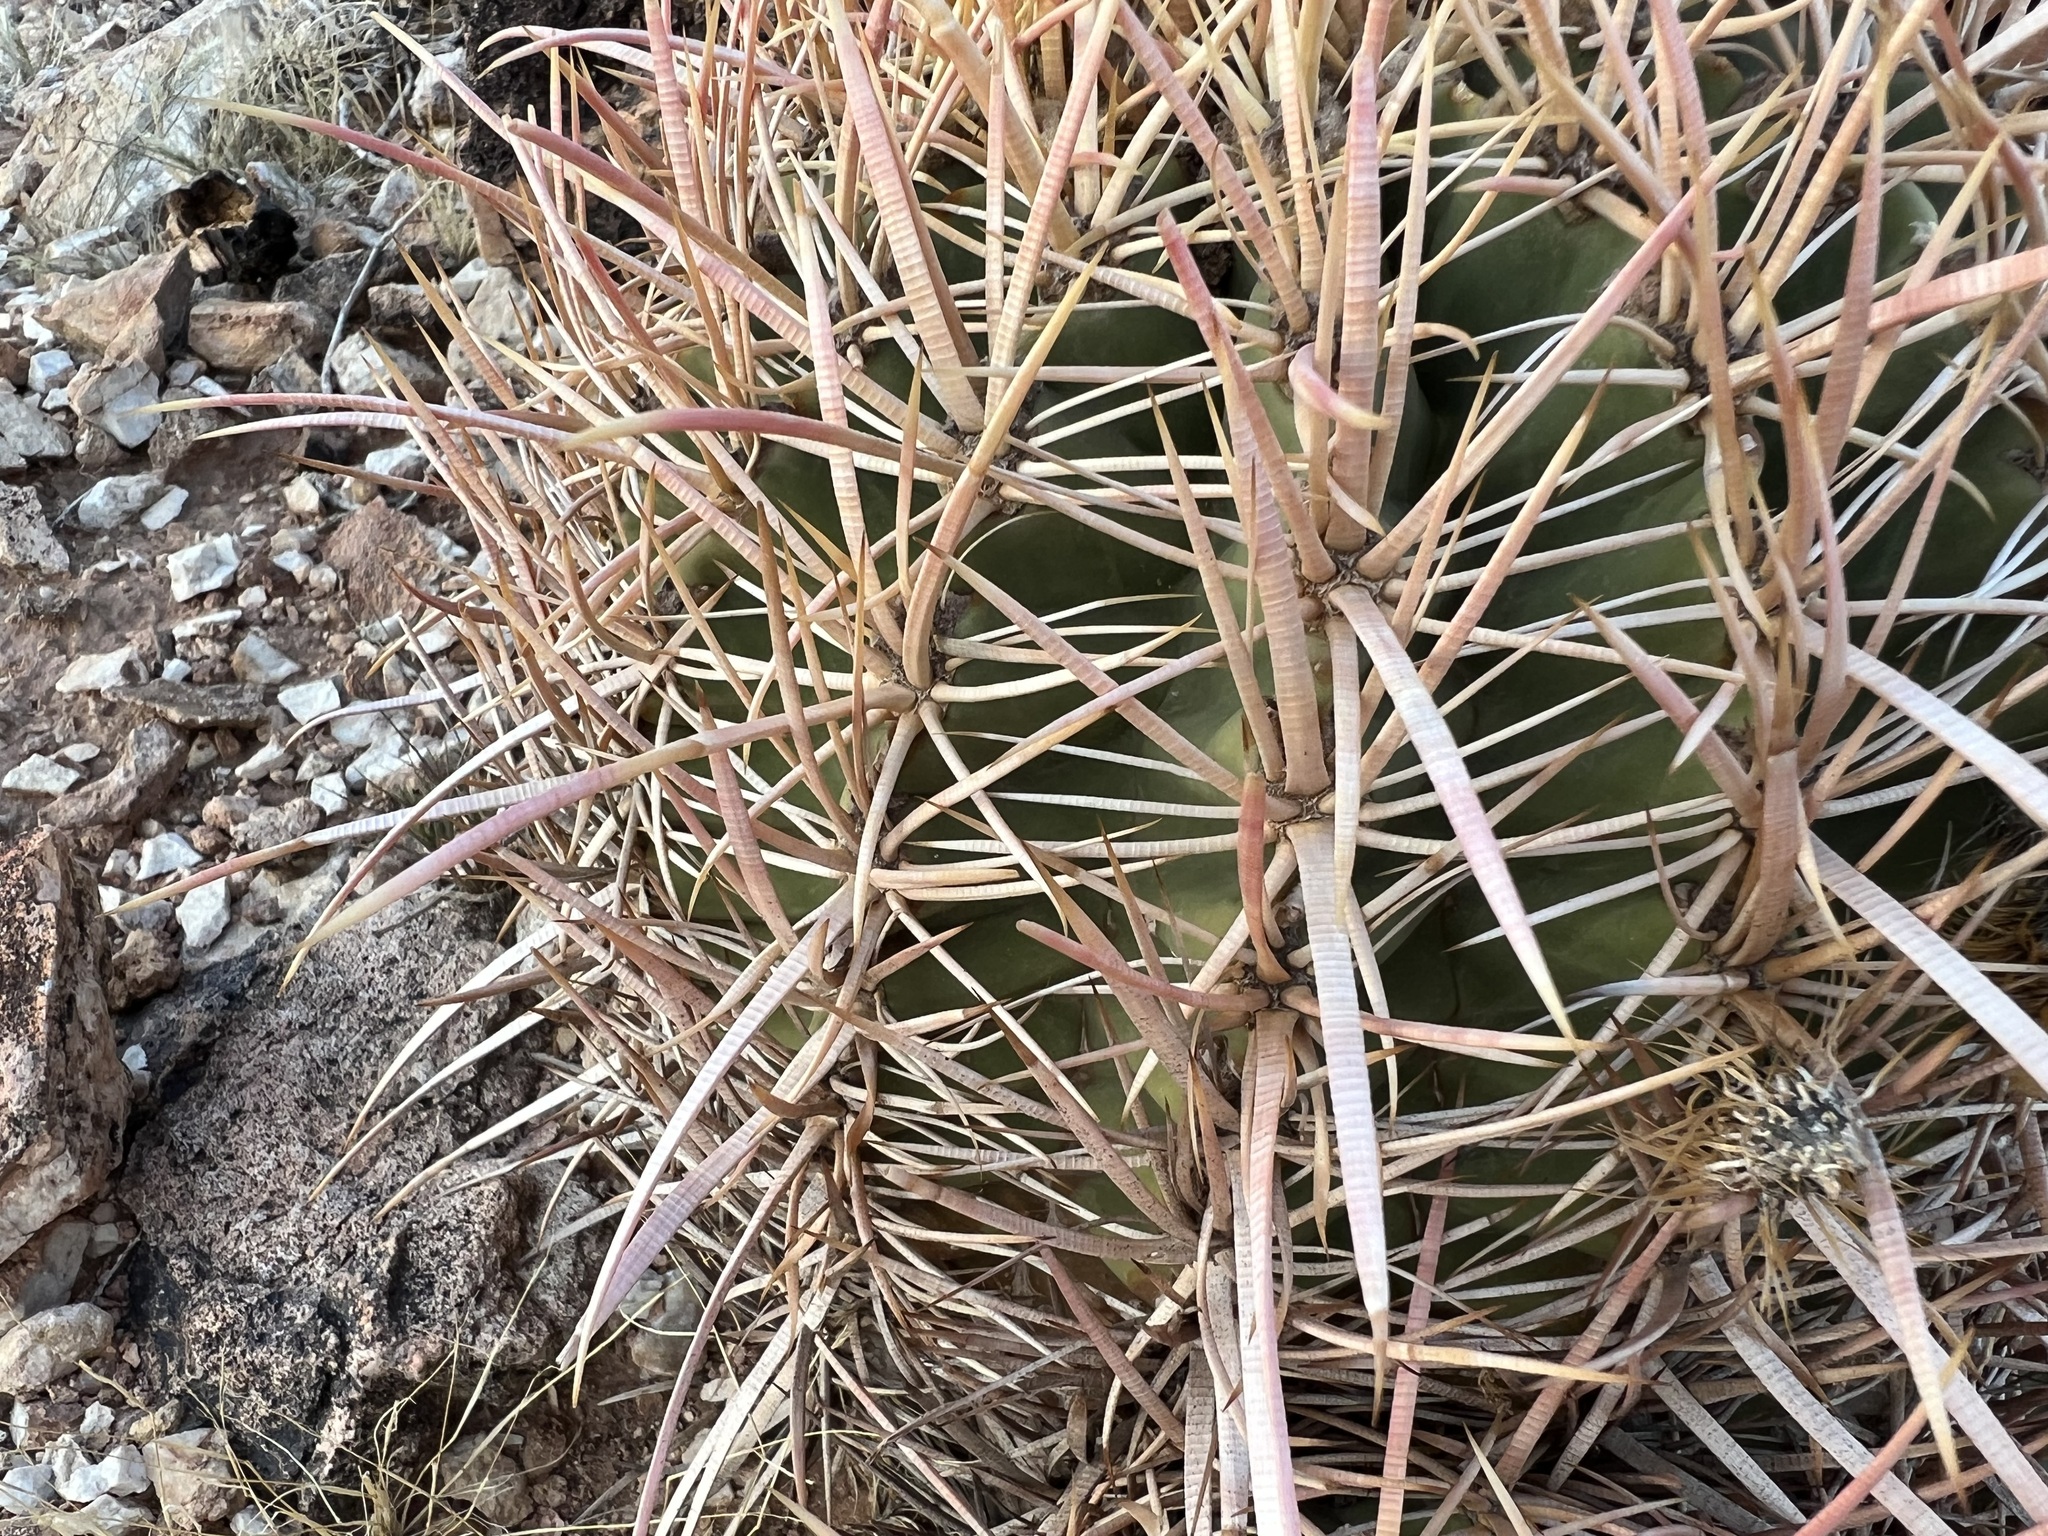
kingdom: Plantae
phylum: Tracheophyta
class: Magnoliopsida
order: Caryophyllales
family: Cactaceae
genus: Echinocactus
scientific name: Echinocactus polycephalus
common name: Cottontop cactus
